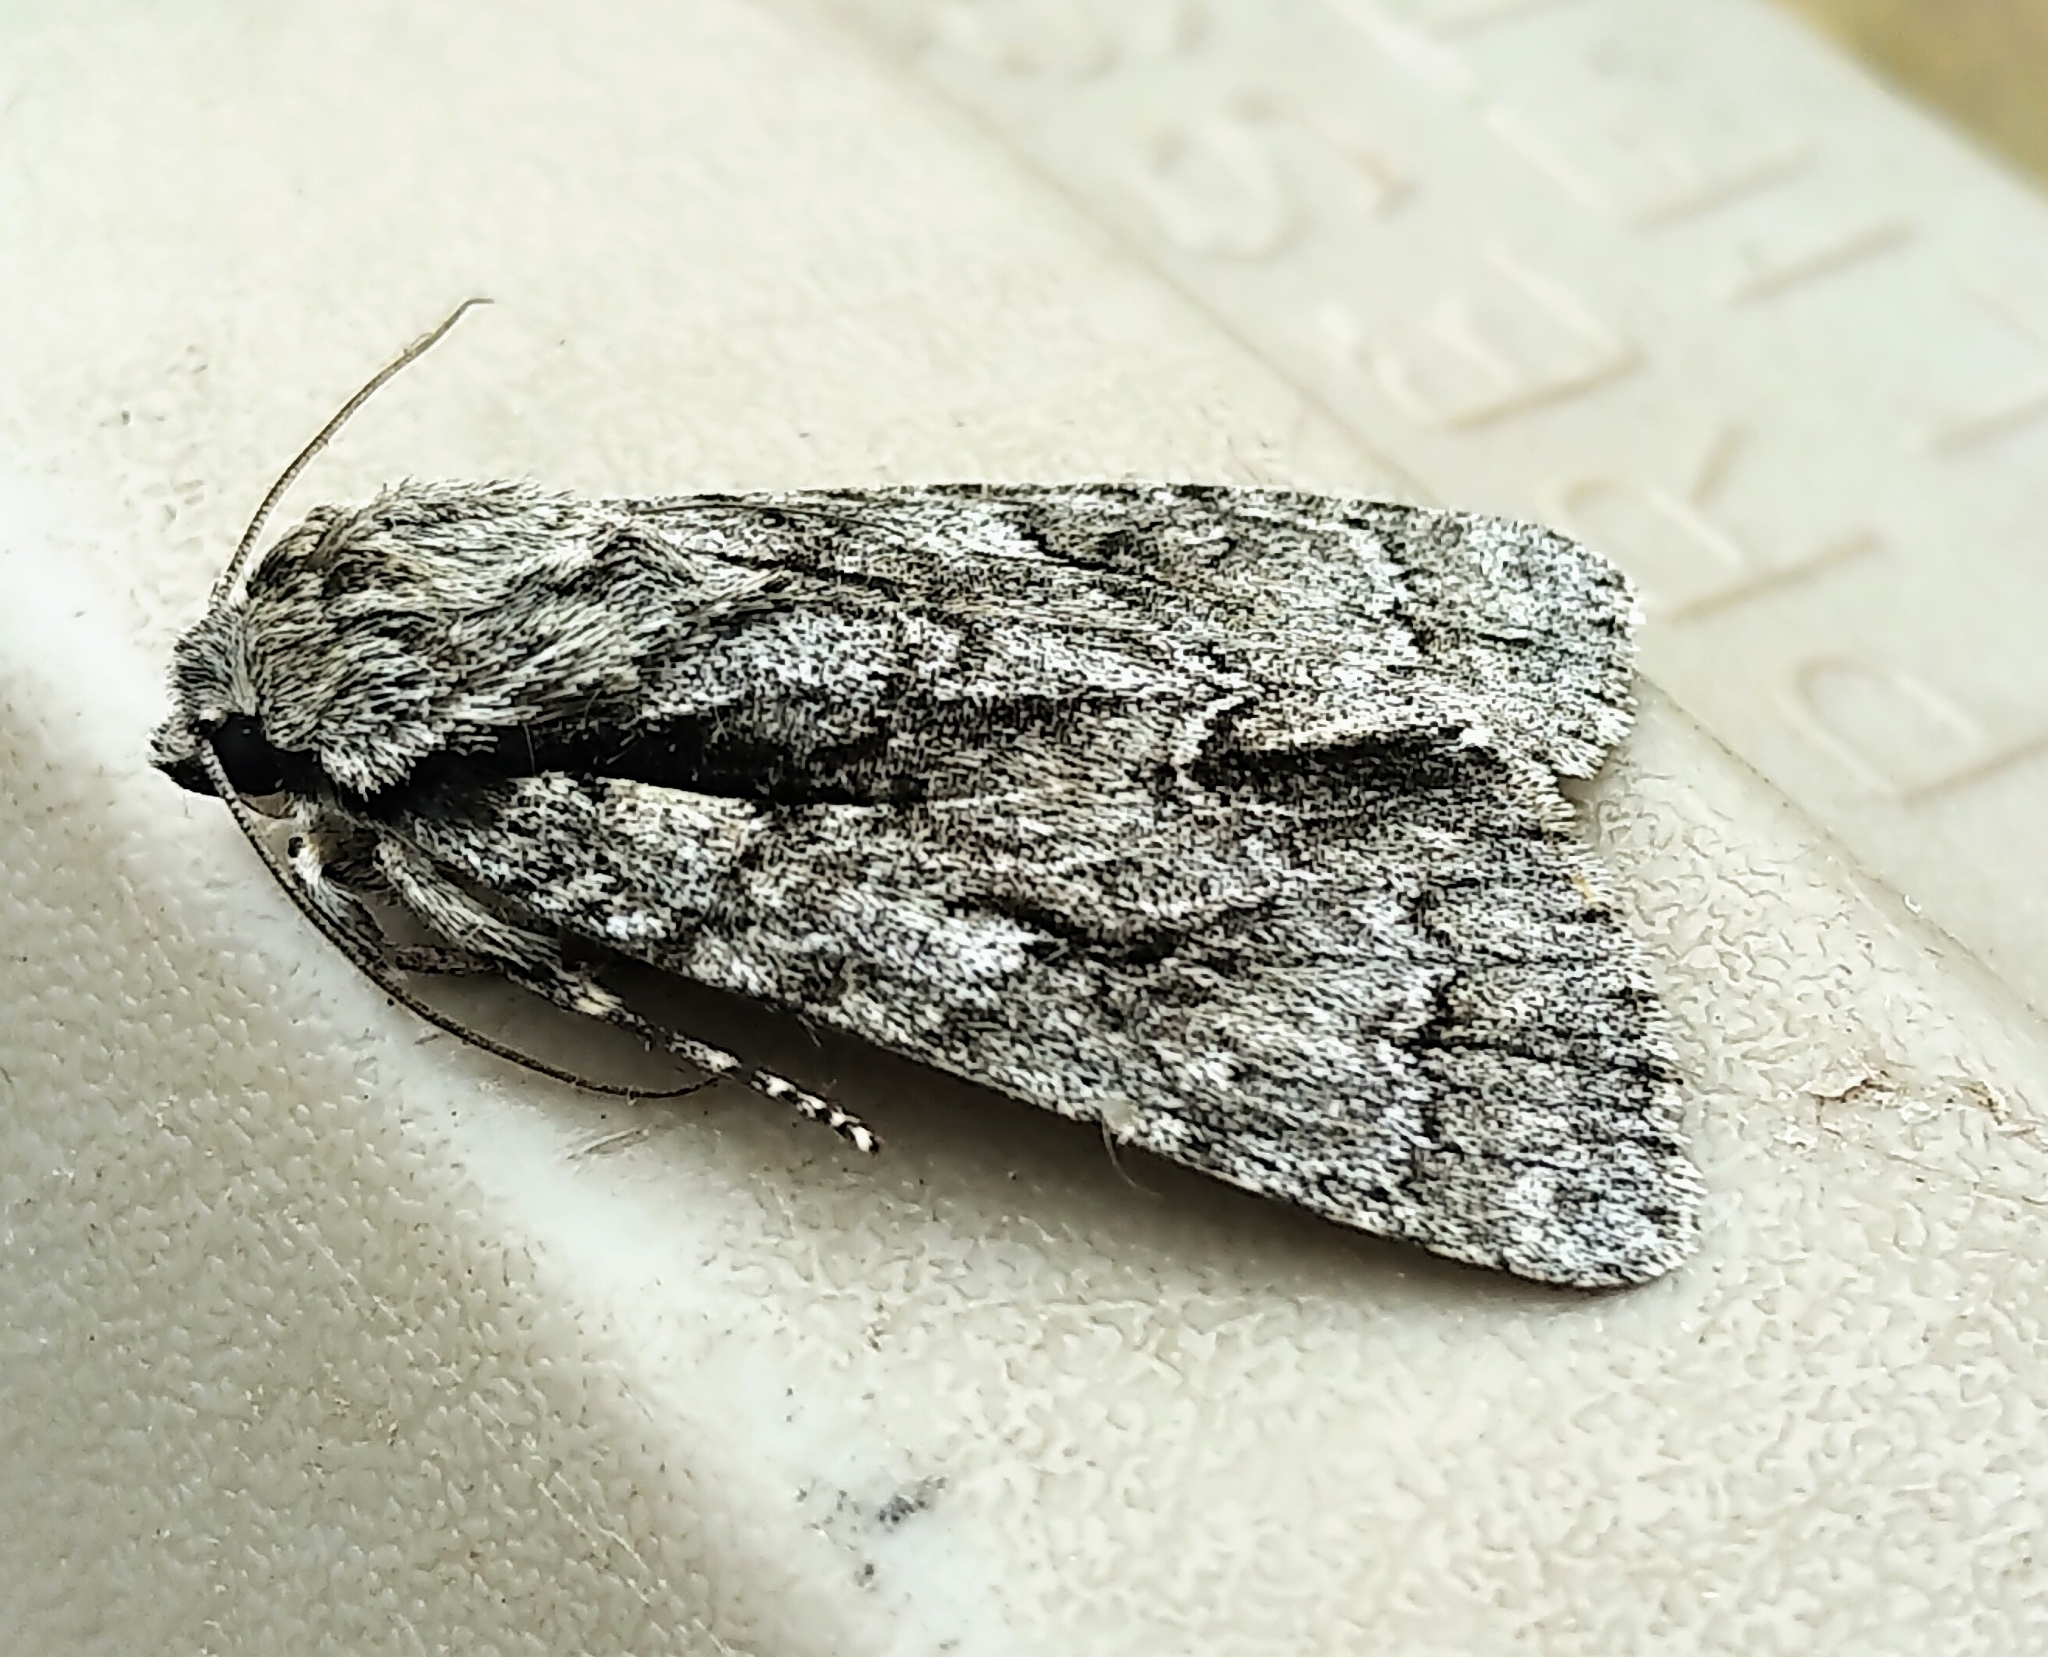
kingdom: Animalia
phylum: Arthropoda
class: Insecta
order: Lepidoptera
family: Noctuidae
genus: Acronicta
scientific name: Acronicta hasta
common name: Cherry dagger
